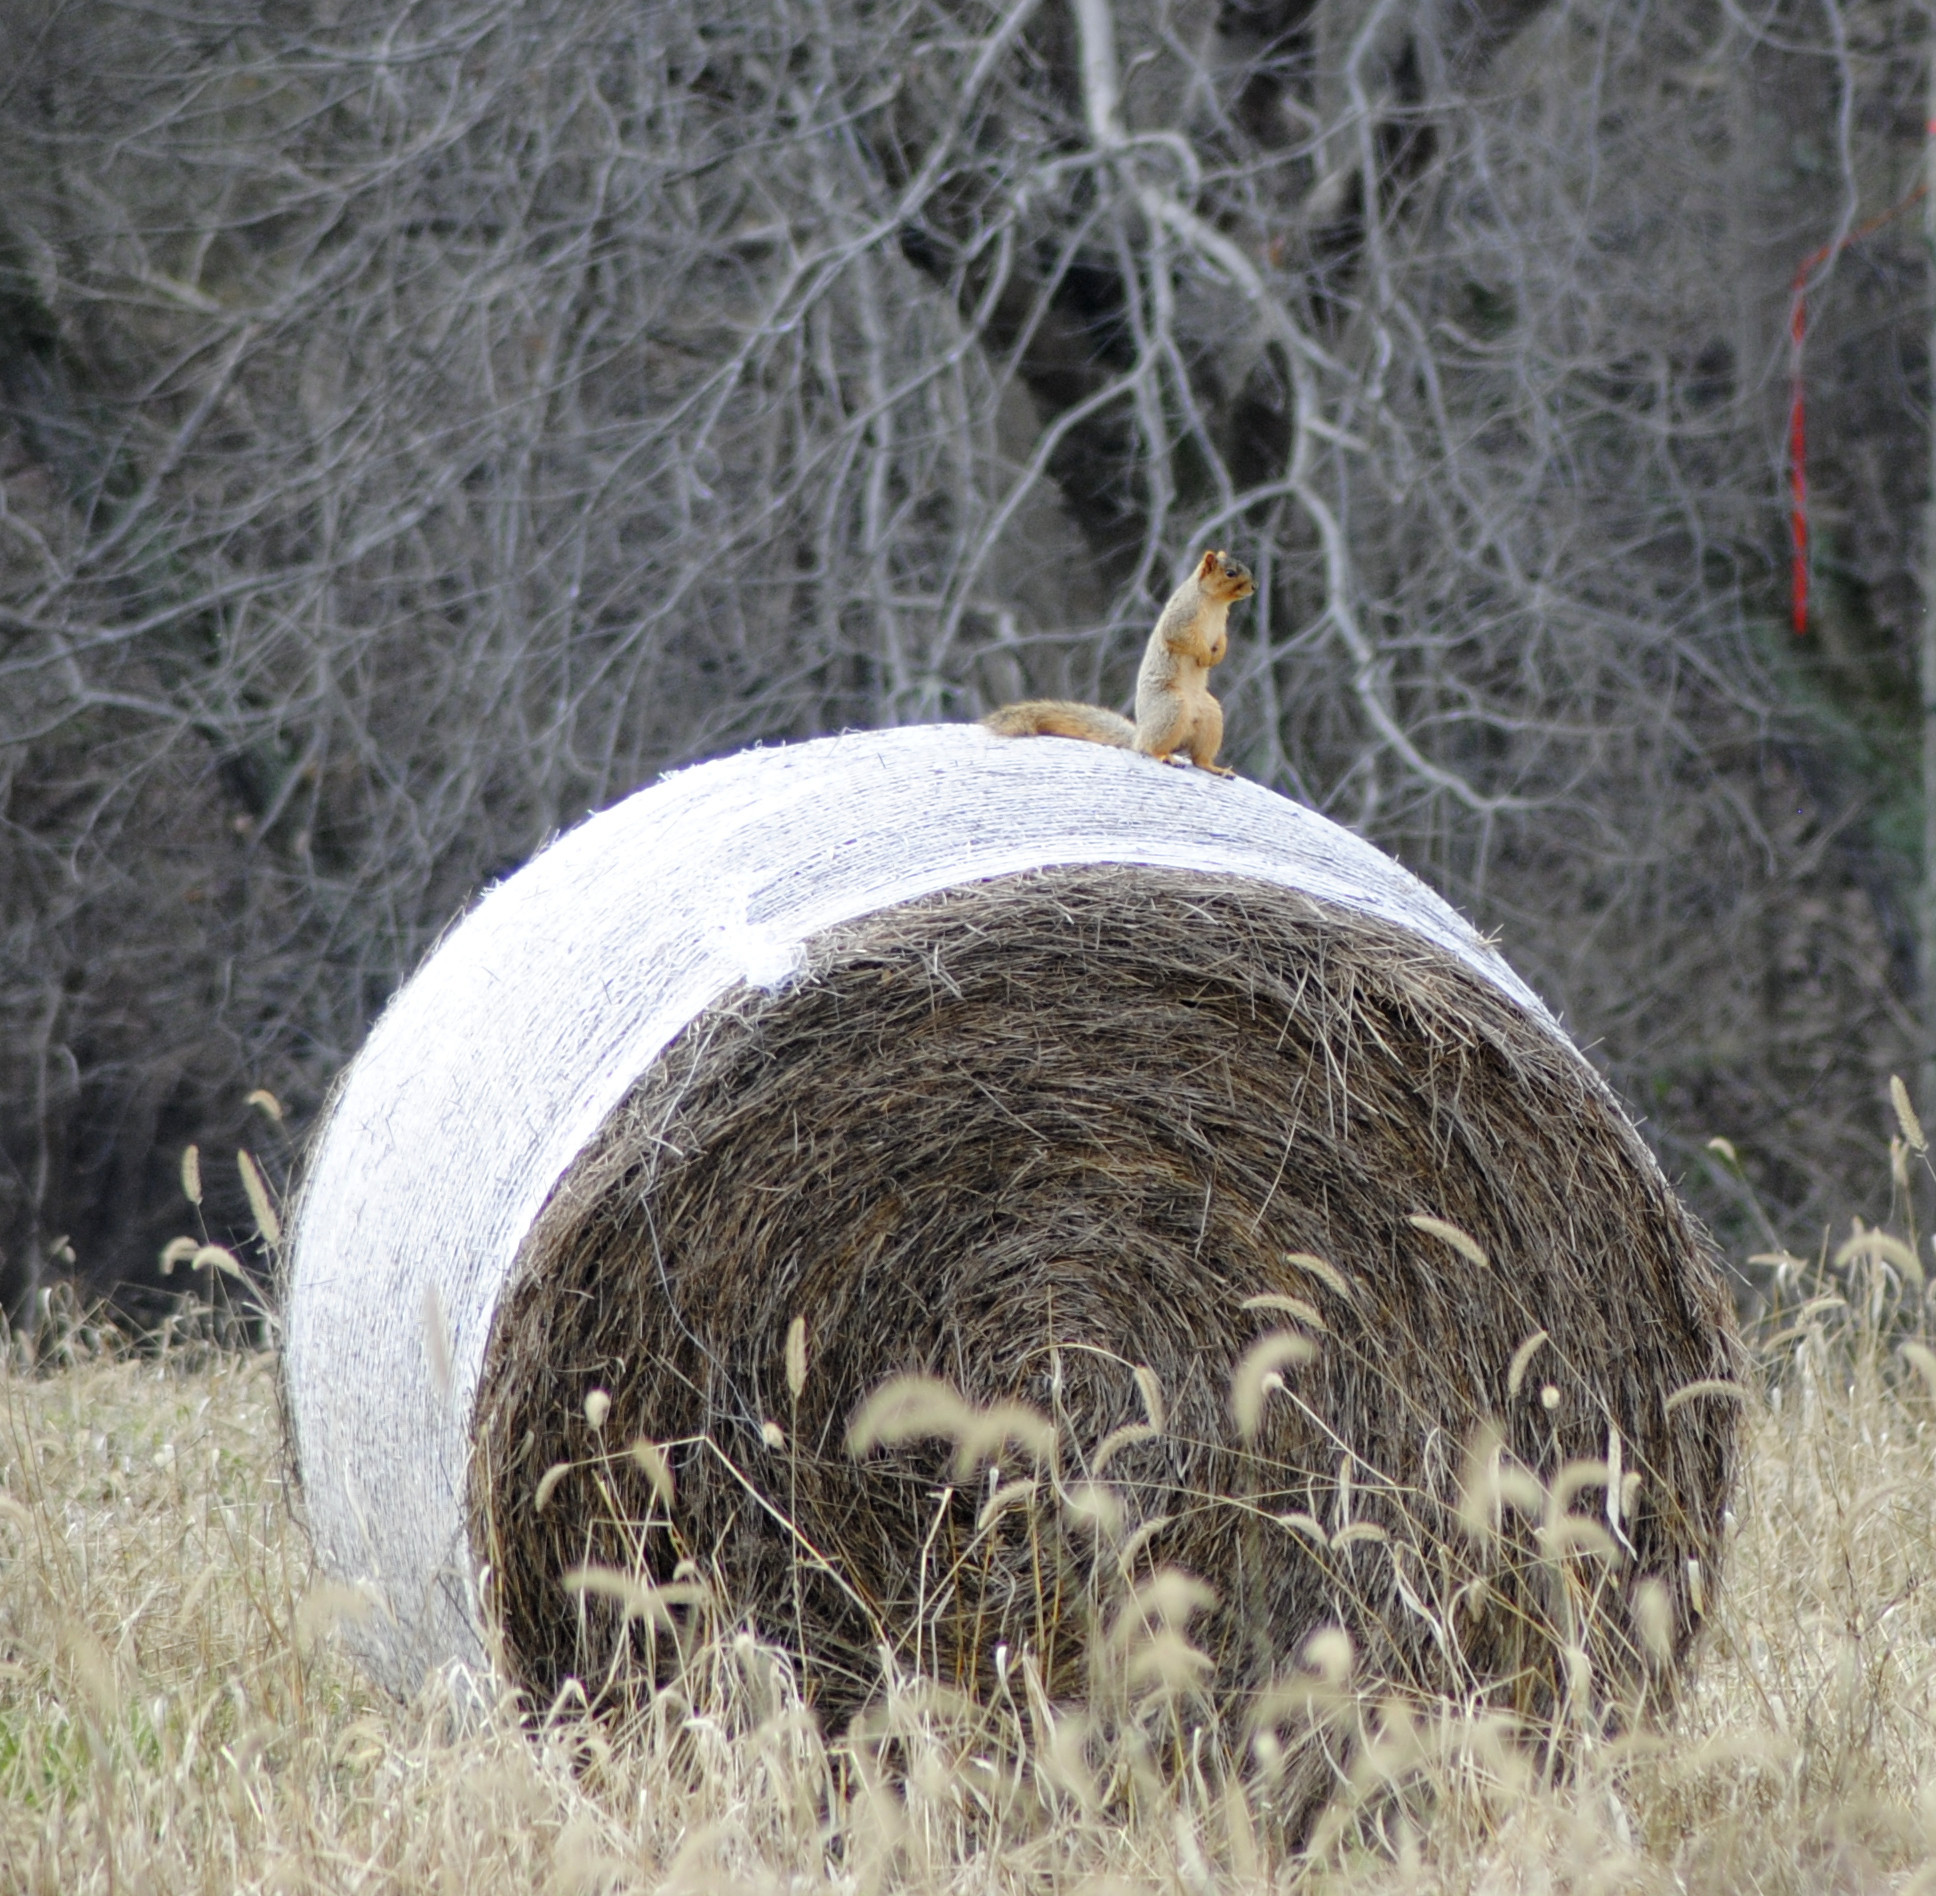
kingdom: Animalia
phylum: Chordata
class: Mammalia
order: Rodentia
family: Sciuridae
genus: Sciurus
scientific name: Sciurus niger
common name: Fox squirrel
